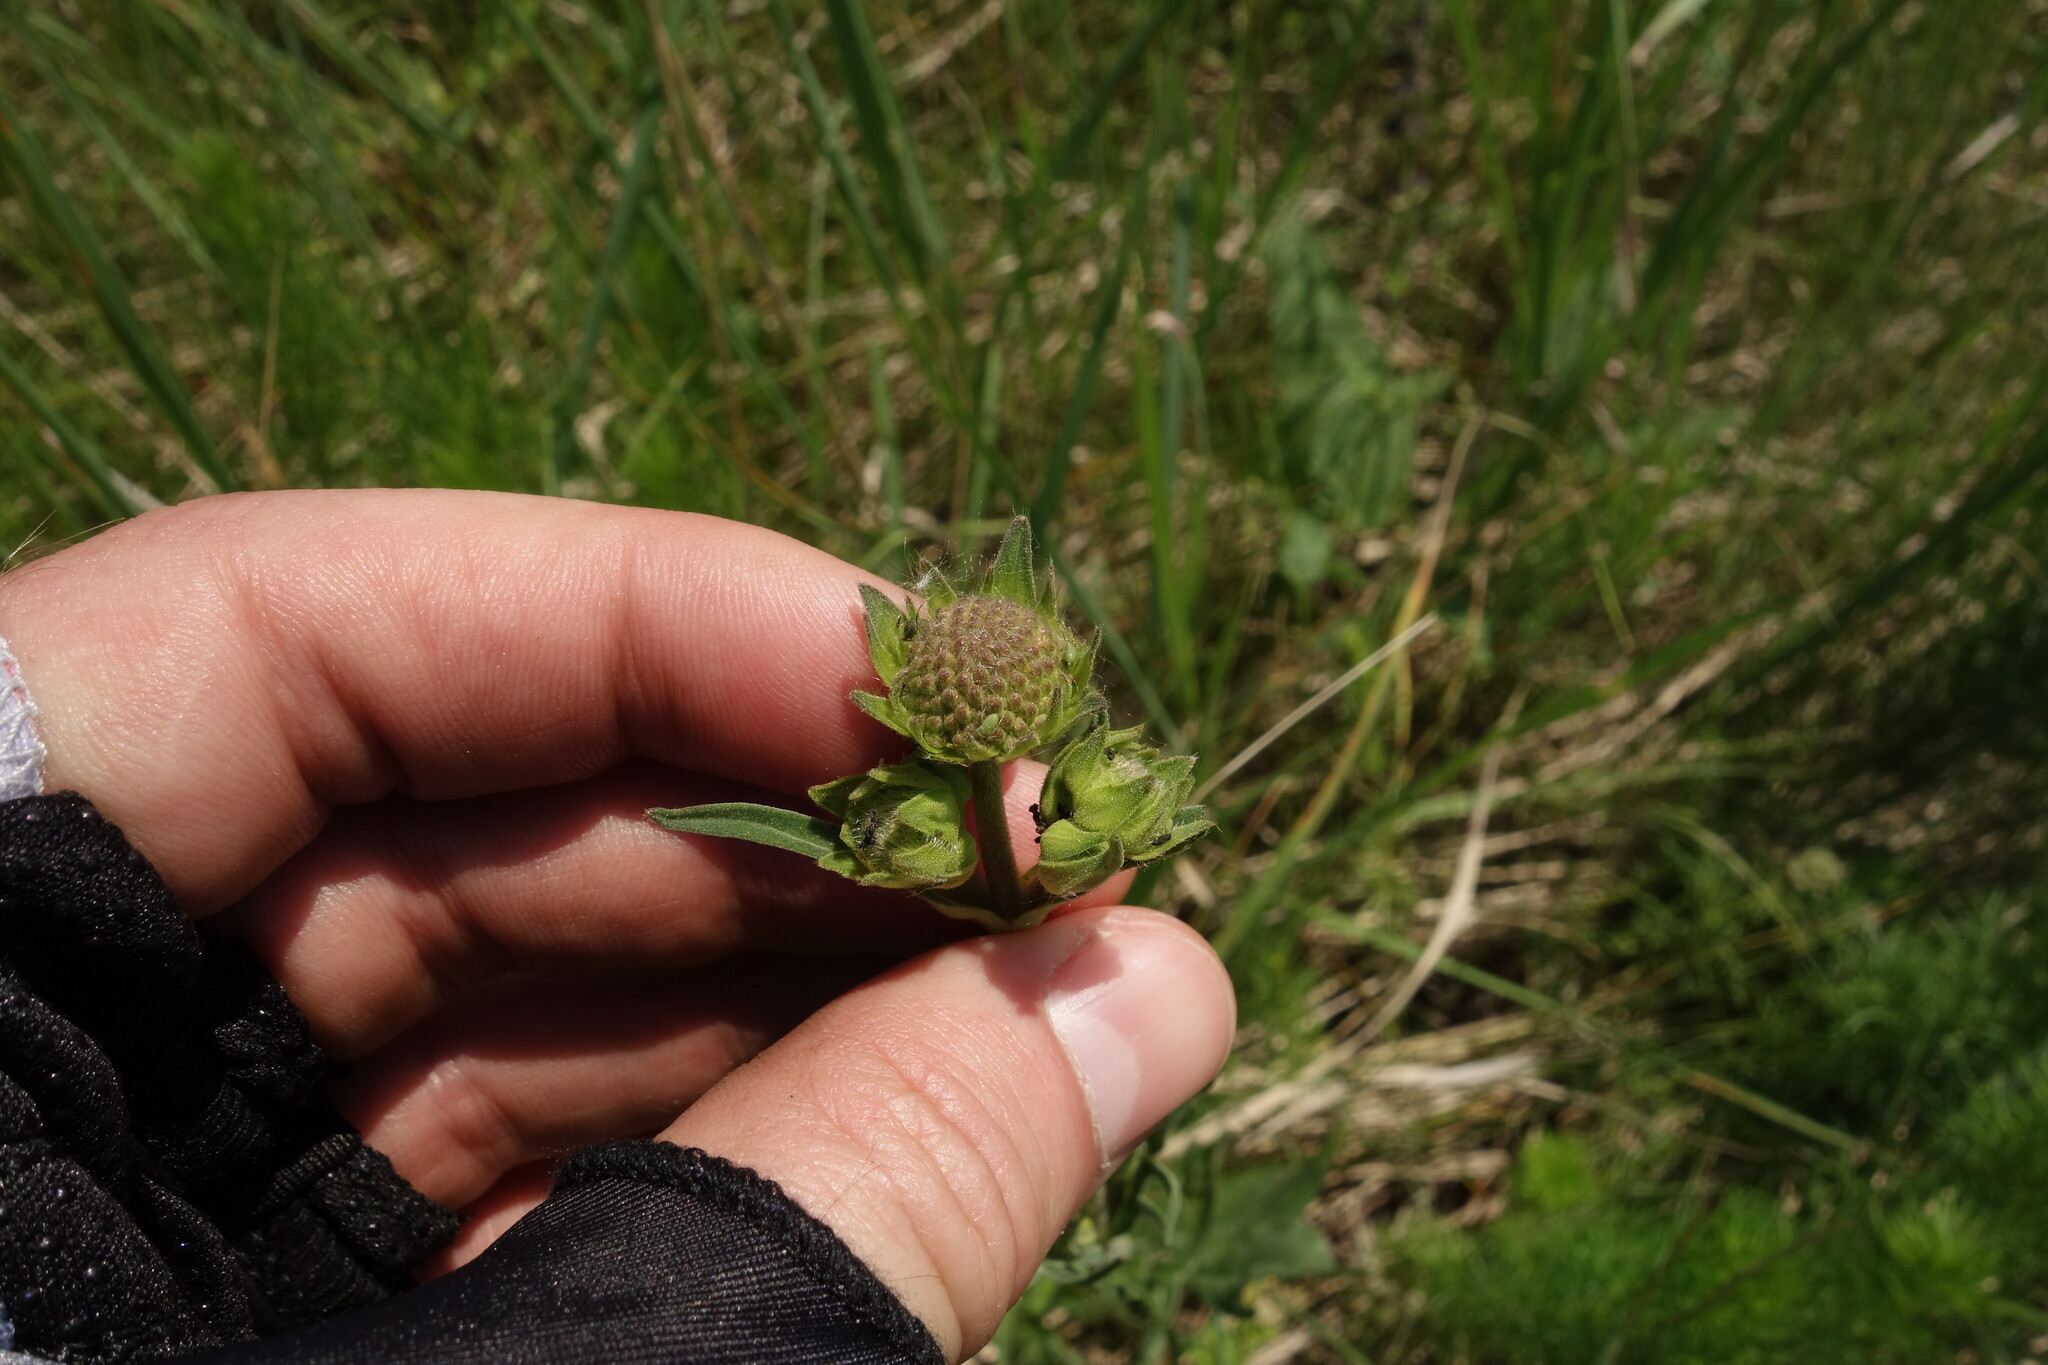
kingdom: Plantae
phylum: Tracheophyta
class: Magnoliopsida
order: Dipsacales
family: Caprifoliaceae
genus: Knautia
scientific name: Knautia arvensis
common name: Field scabiosa
